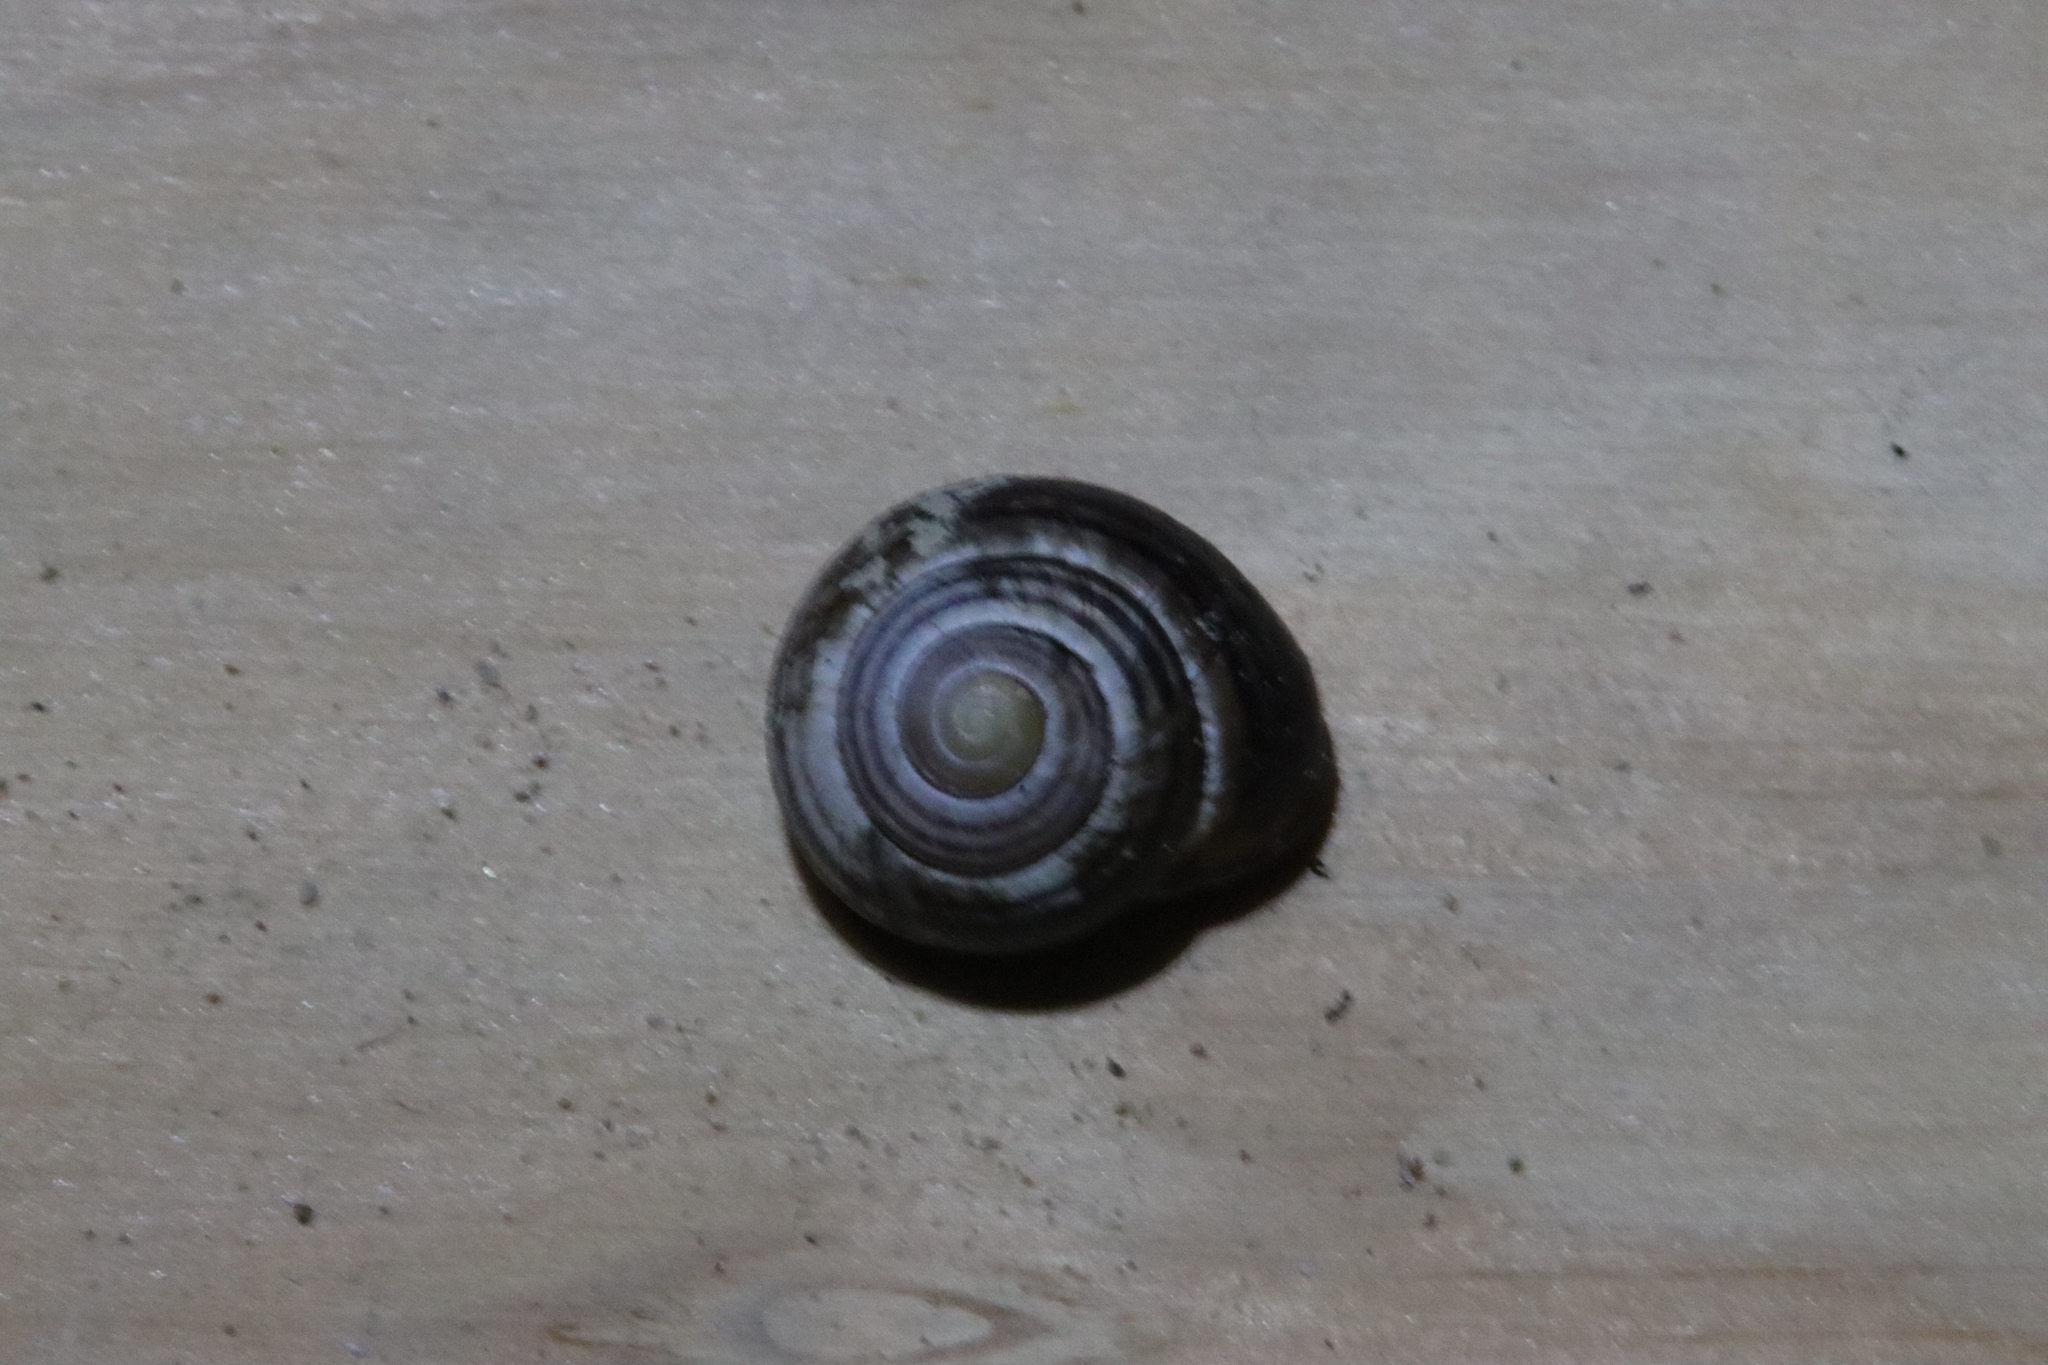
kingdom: Animalia
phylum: Mollusca
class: Gastropoda
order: Stylommatophora
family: Helicidae
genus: Cepaea
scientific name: Cepaea nemoralis
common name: Grovesnail
